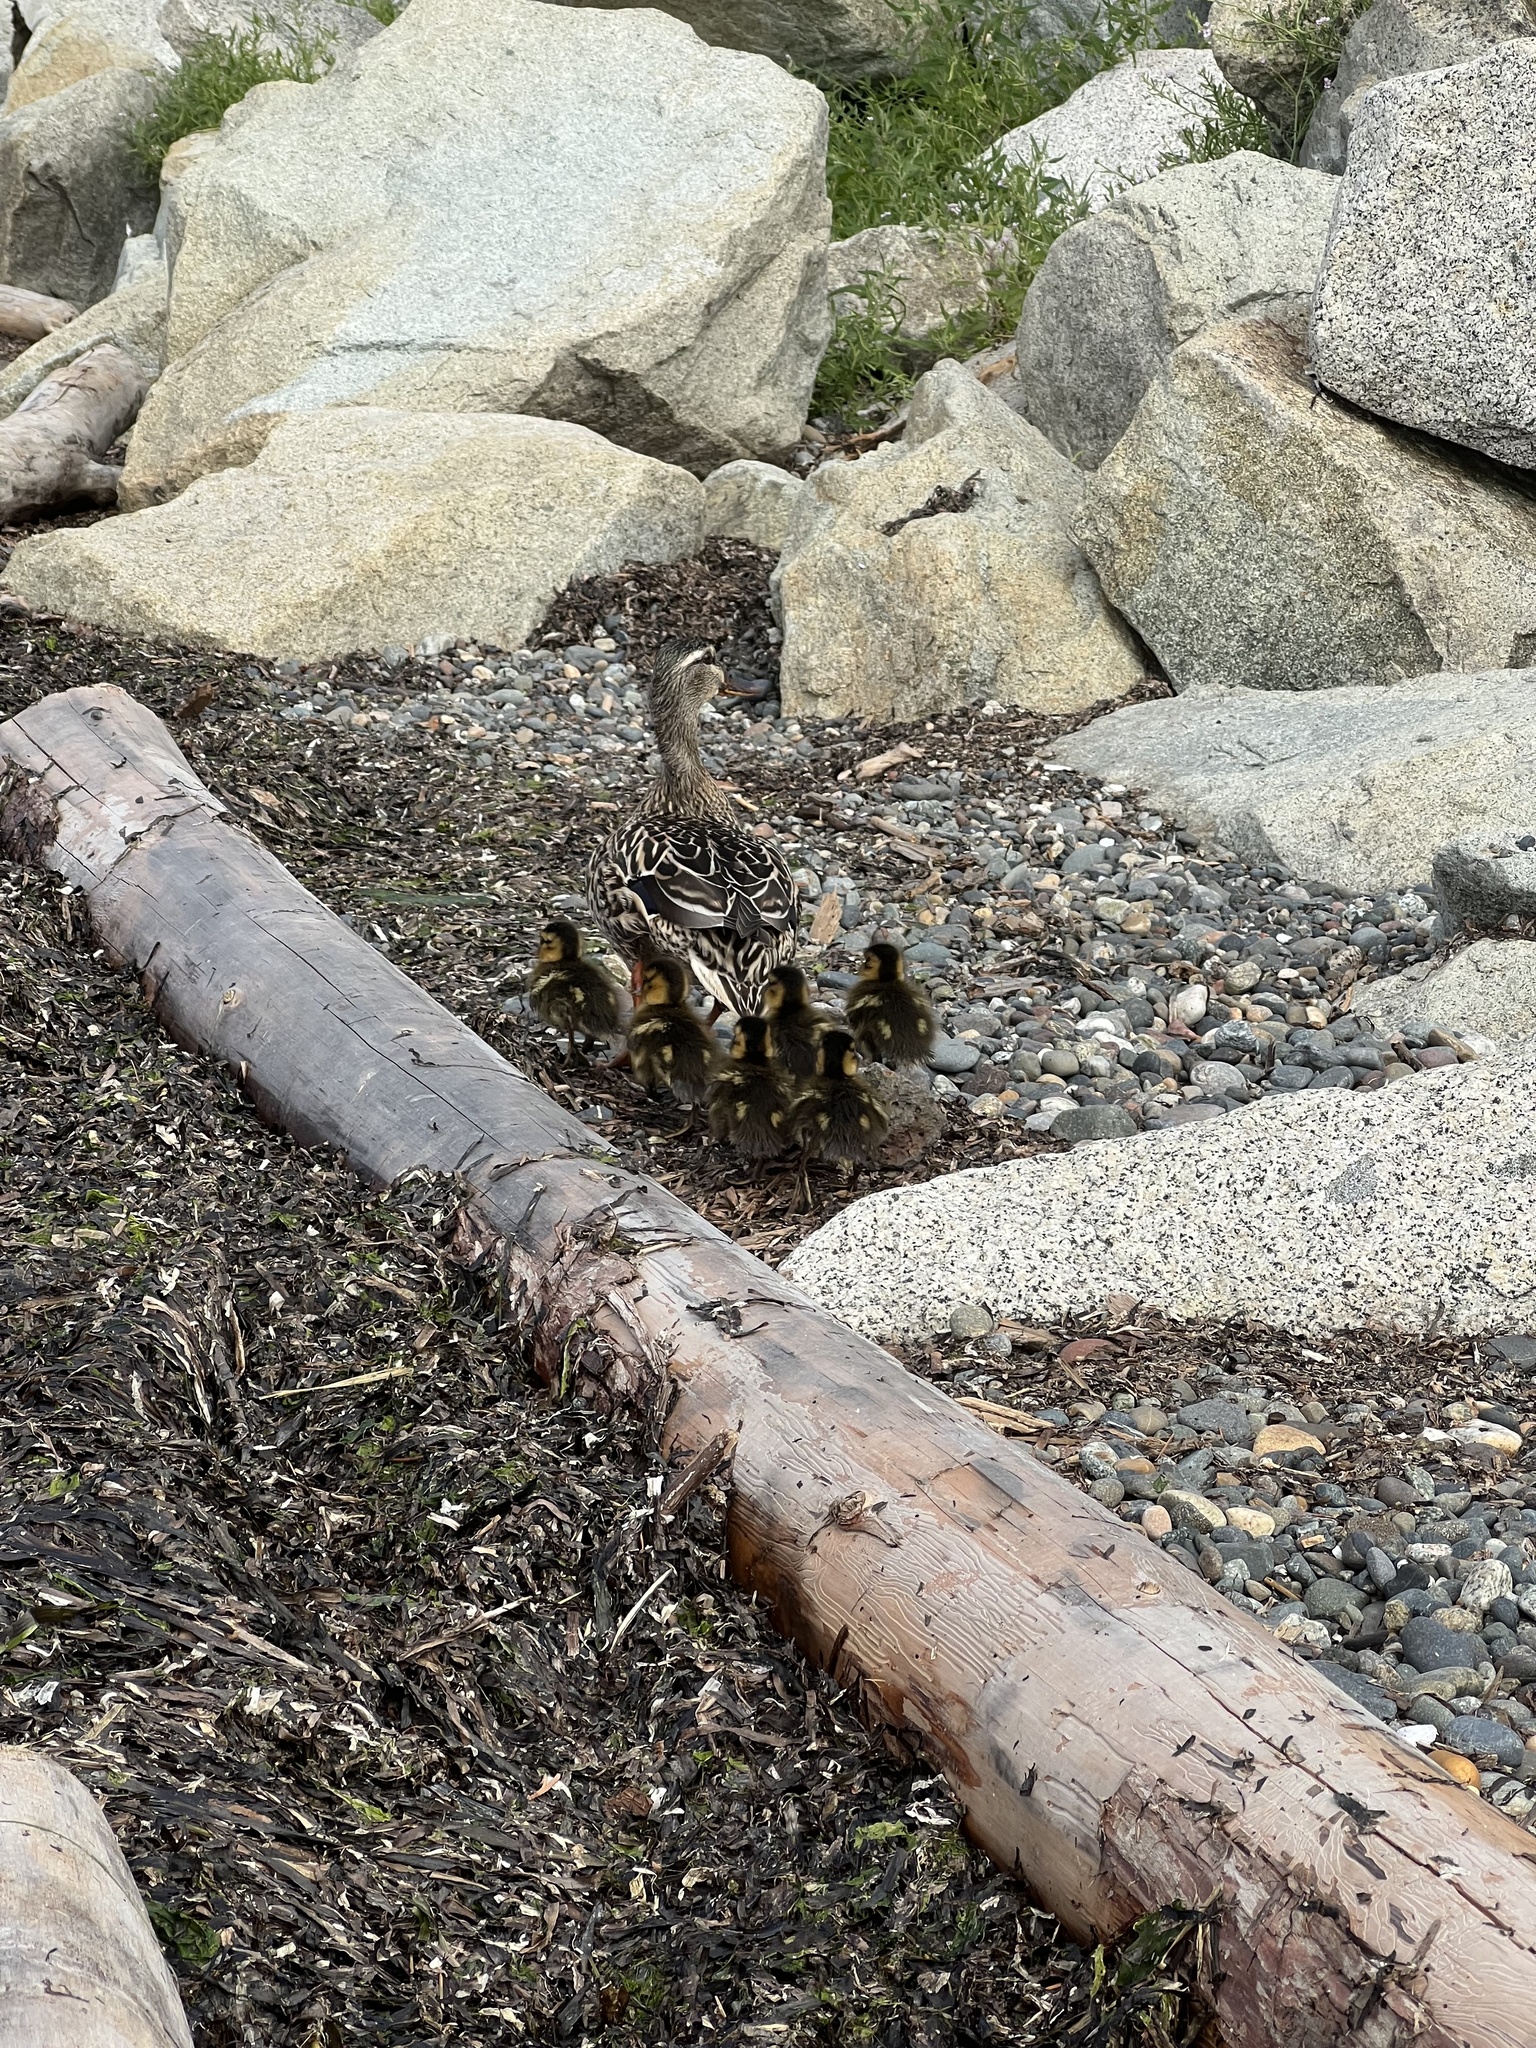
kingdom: Animalia
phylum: Chordata
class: Aves
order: Anseriformes
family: Anatidae
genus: Anas
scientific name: Anas platyrhynchos
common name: Mallard
